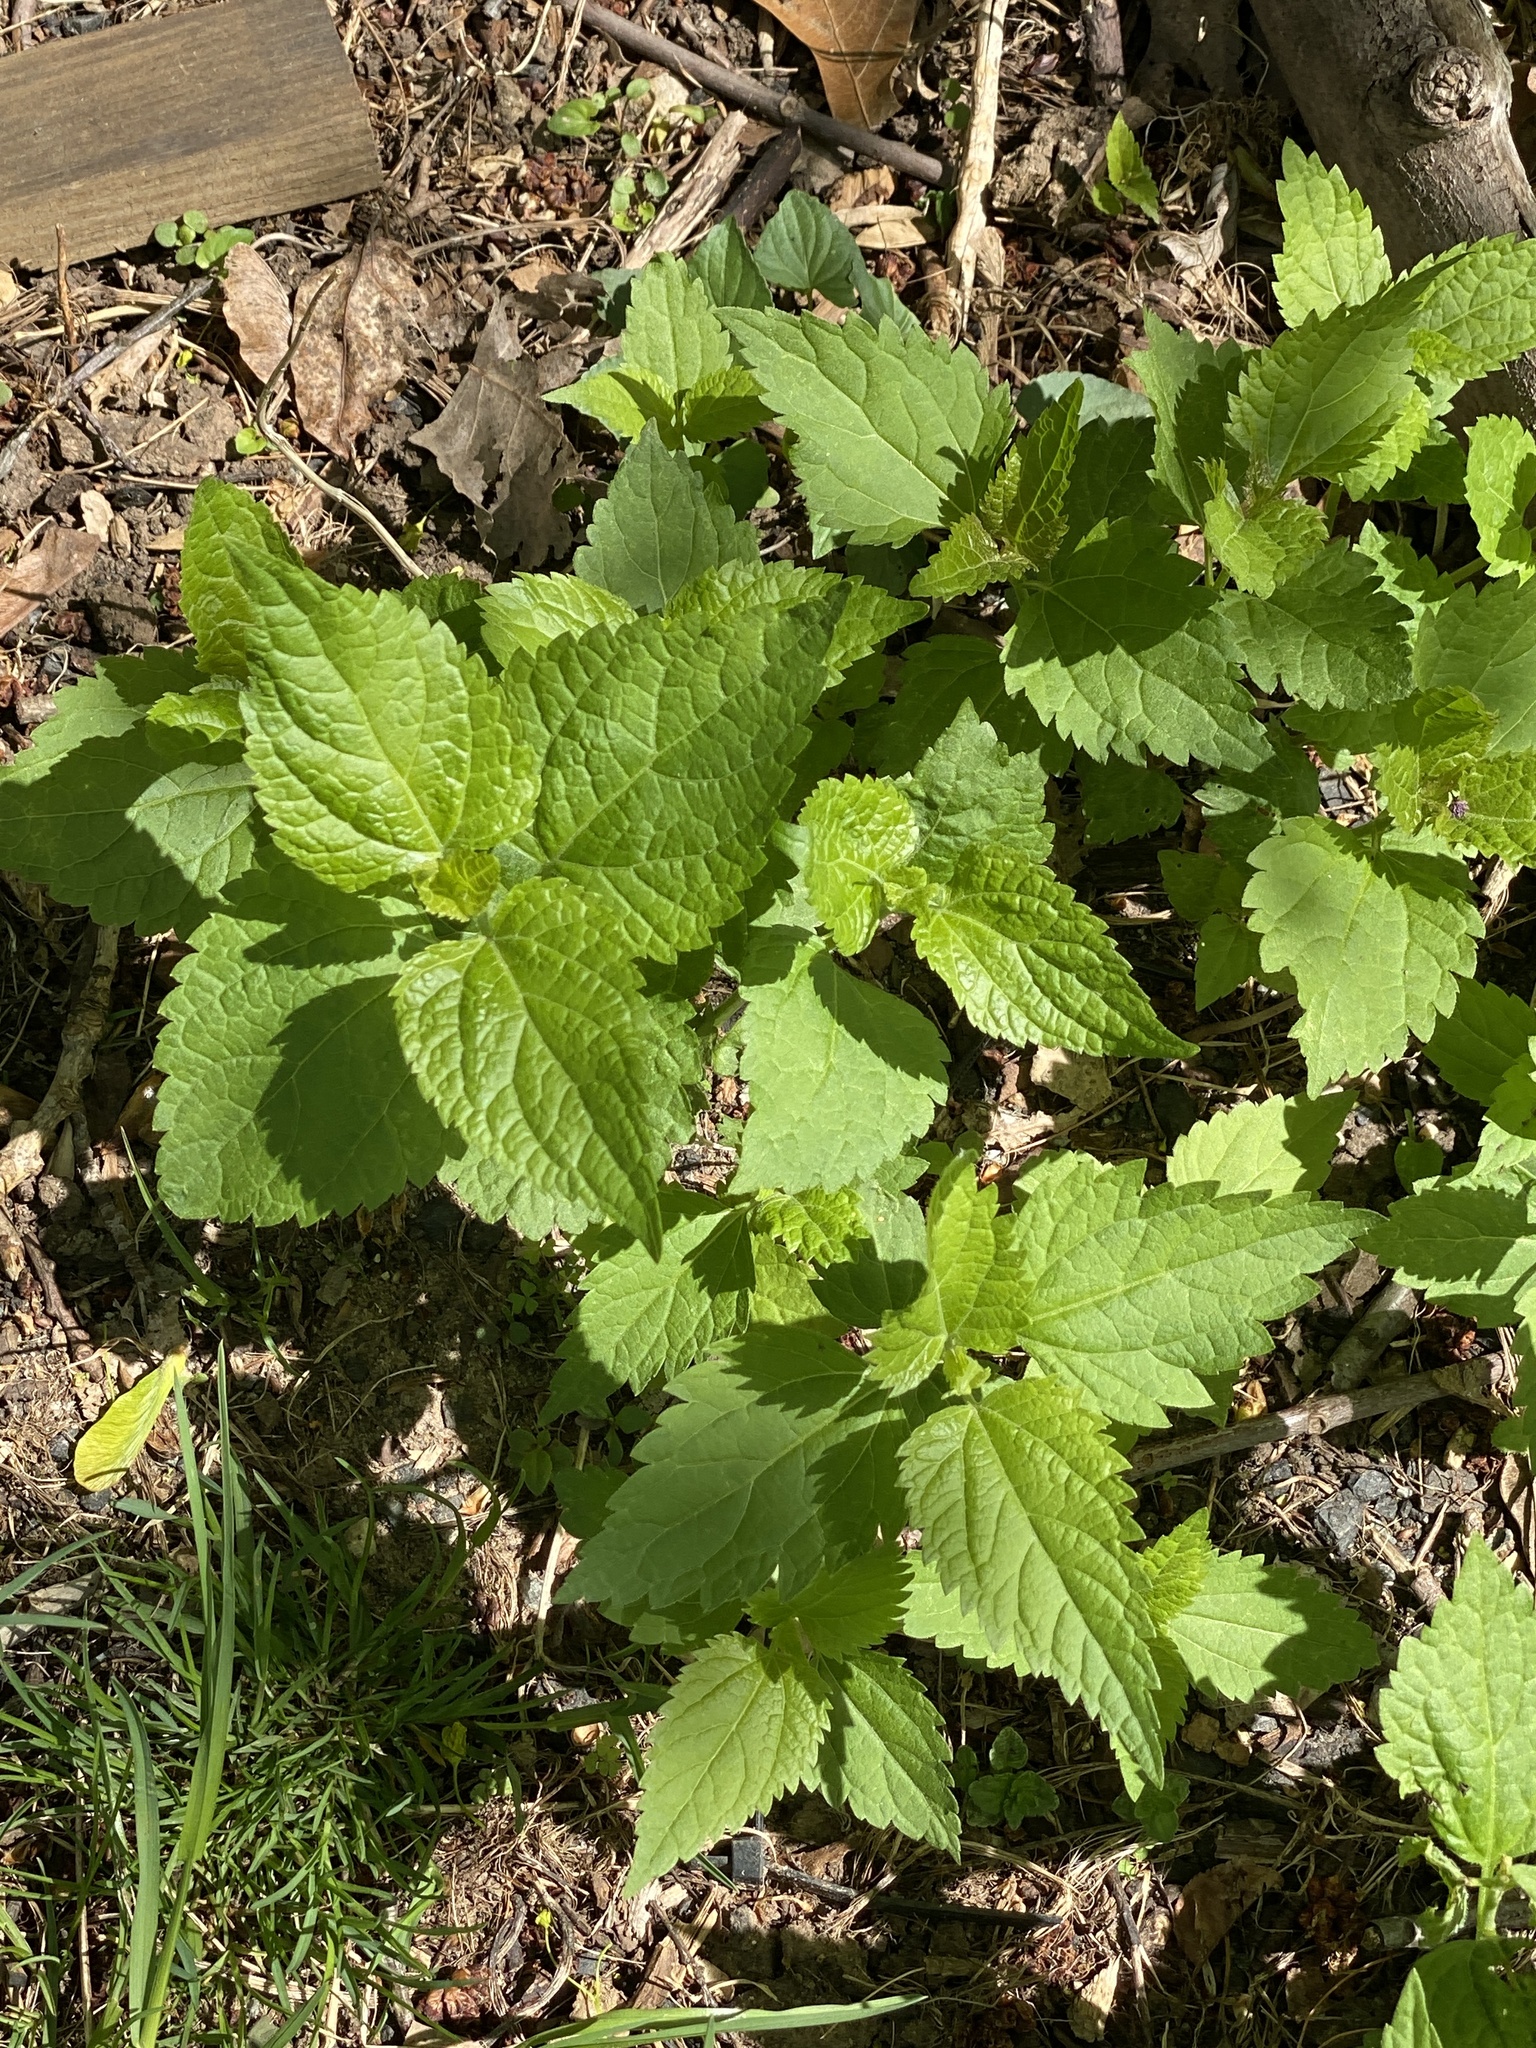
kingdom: Plantae
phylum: Tracheophyta
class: Magnoliopsida
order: Asterales
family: Asteraceae
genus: Ageratina
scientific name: Ageratina altissima
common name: White snakeroot
